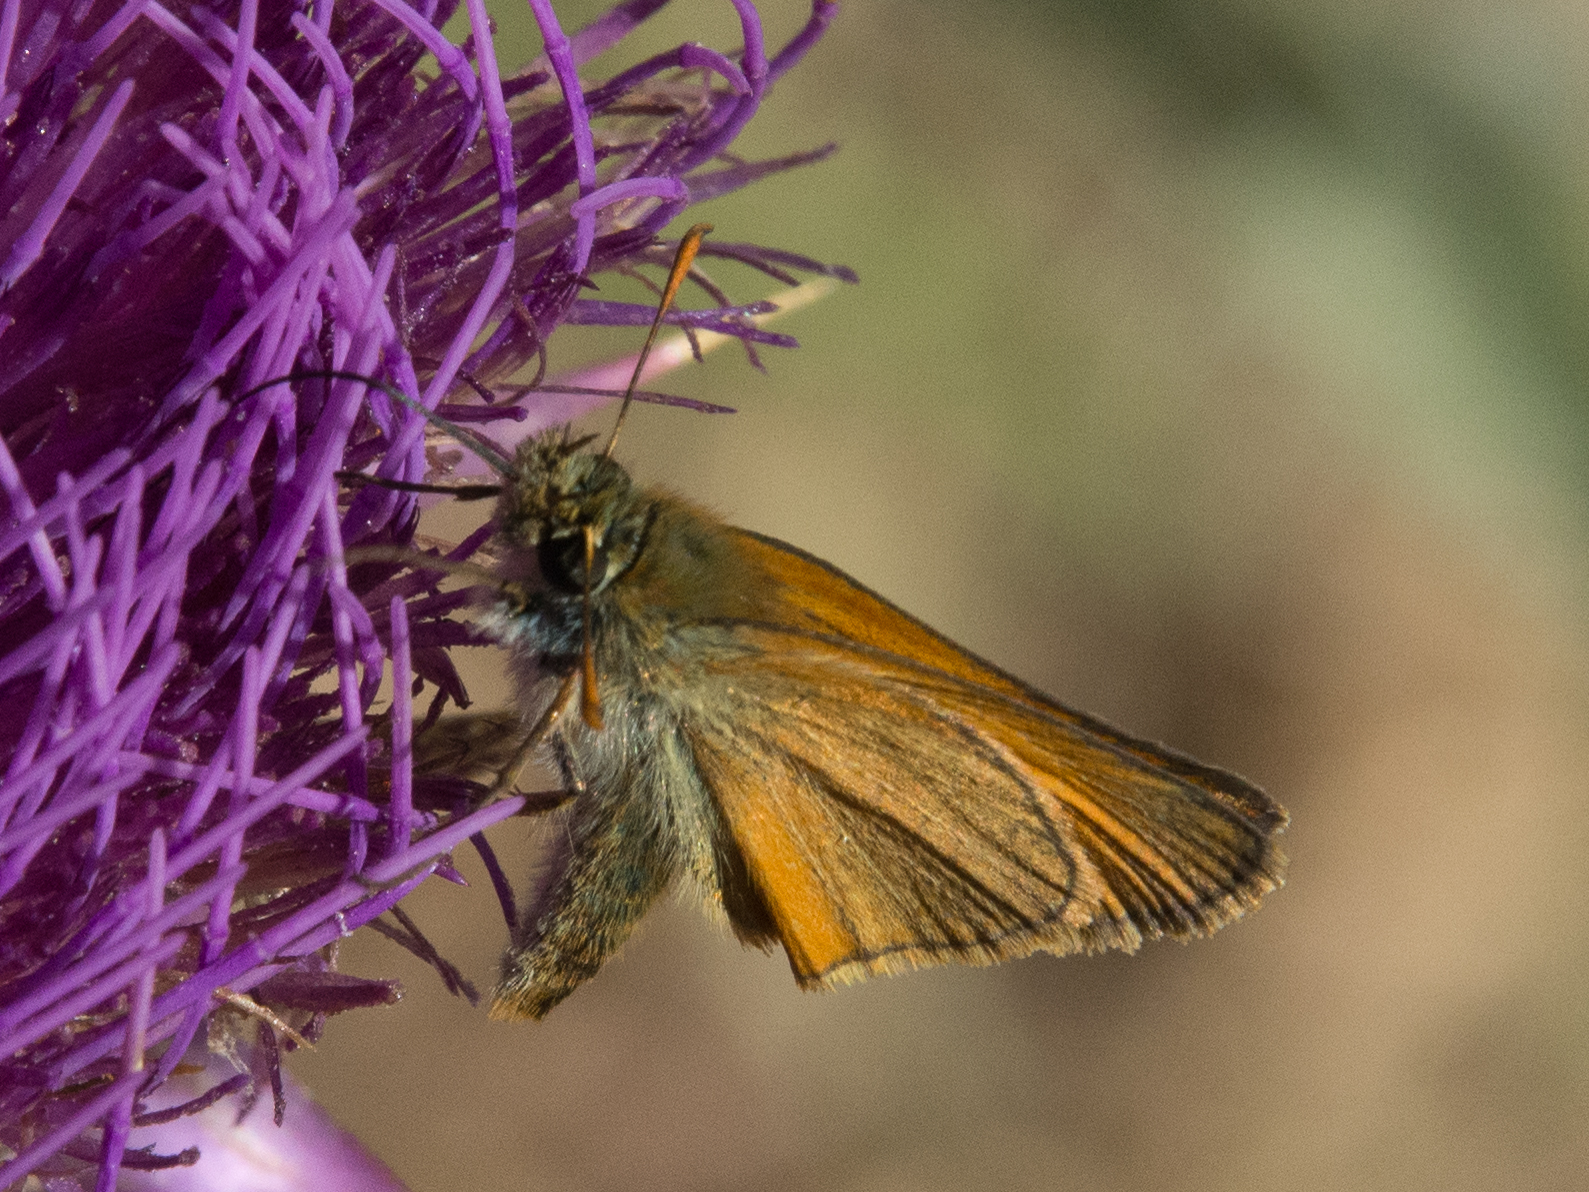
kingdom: Animalia
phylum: Arthropoda
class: Insecta
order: Lepidoptera
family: Hesperiidae
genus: Thymelicus
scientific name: Thymelicus sylvestris
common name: Small skipper
